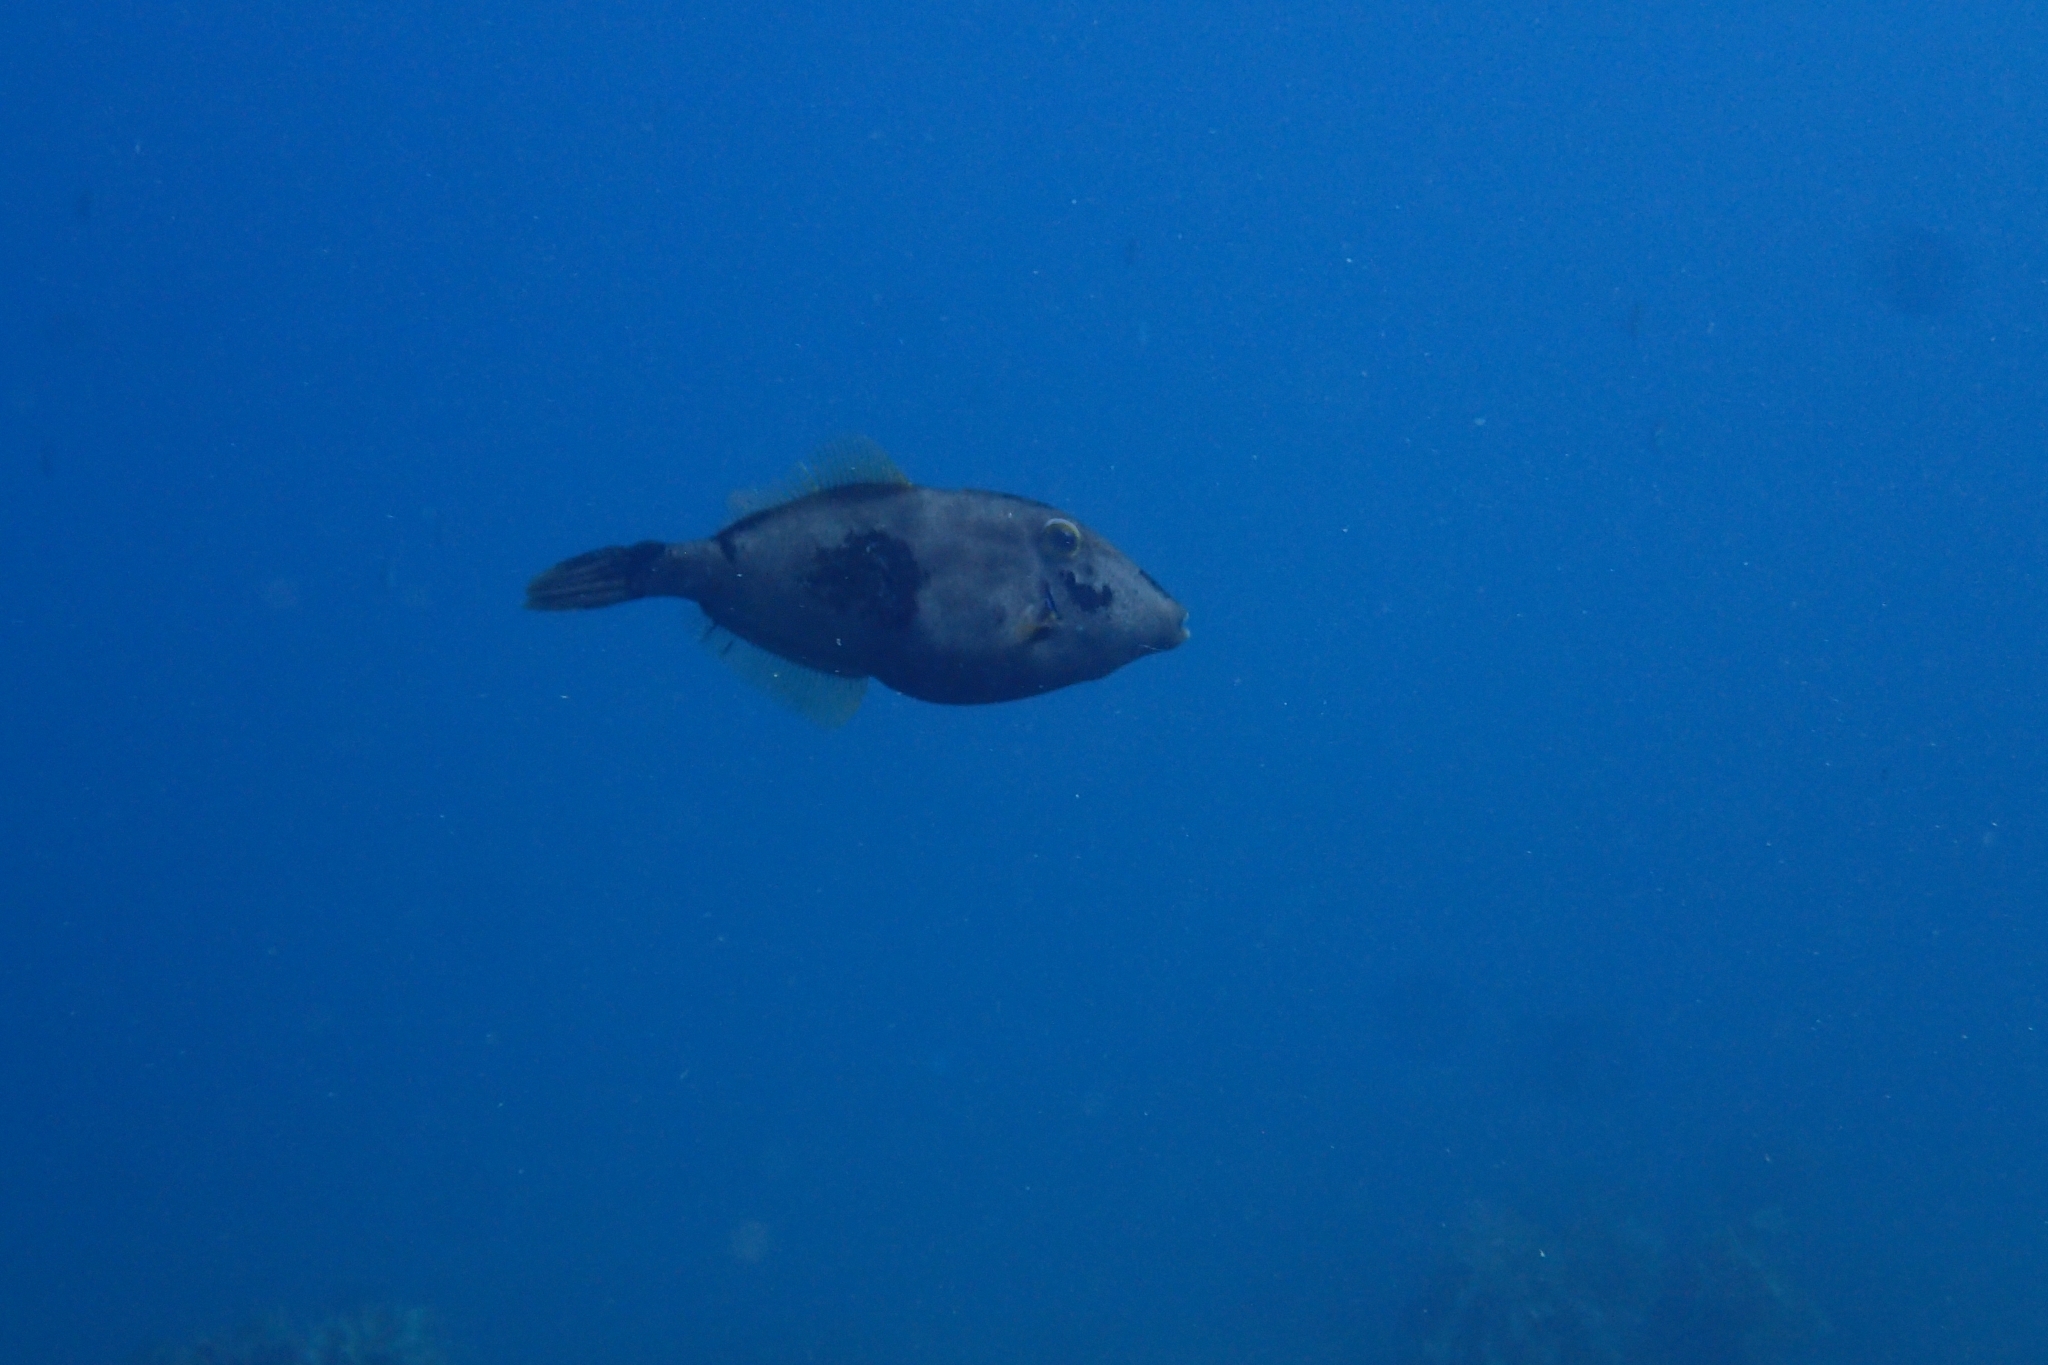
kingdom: Animalia
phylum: Chordata
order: Tetraodontiformes
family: Monacanthidae
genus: Meuschenia
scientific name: Meuschenia scaber
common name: Cosmopolitan leatherjacket
